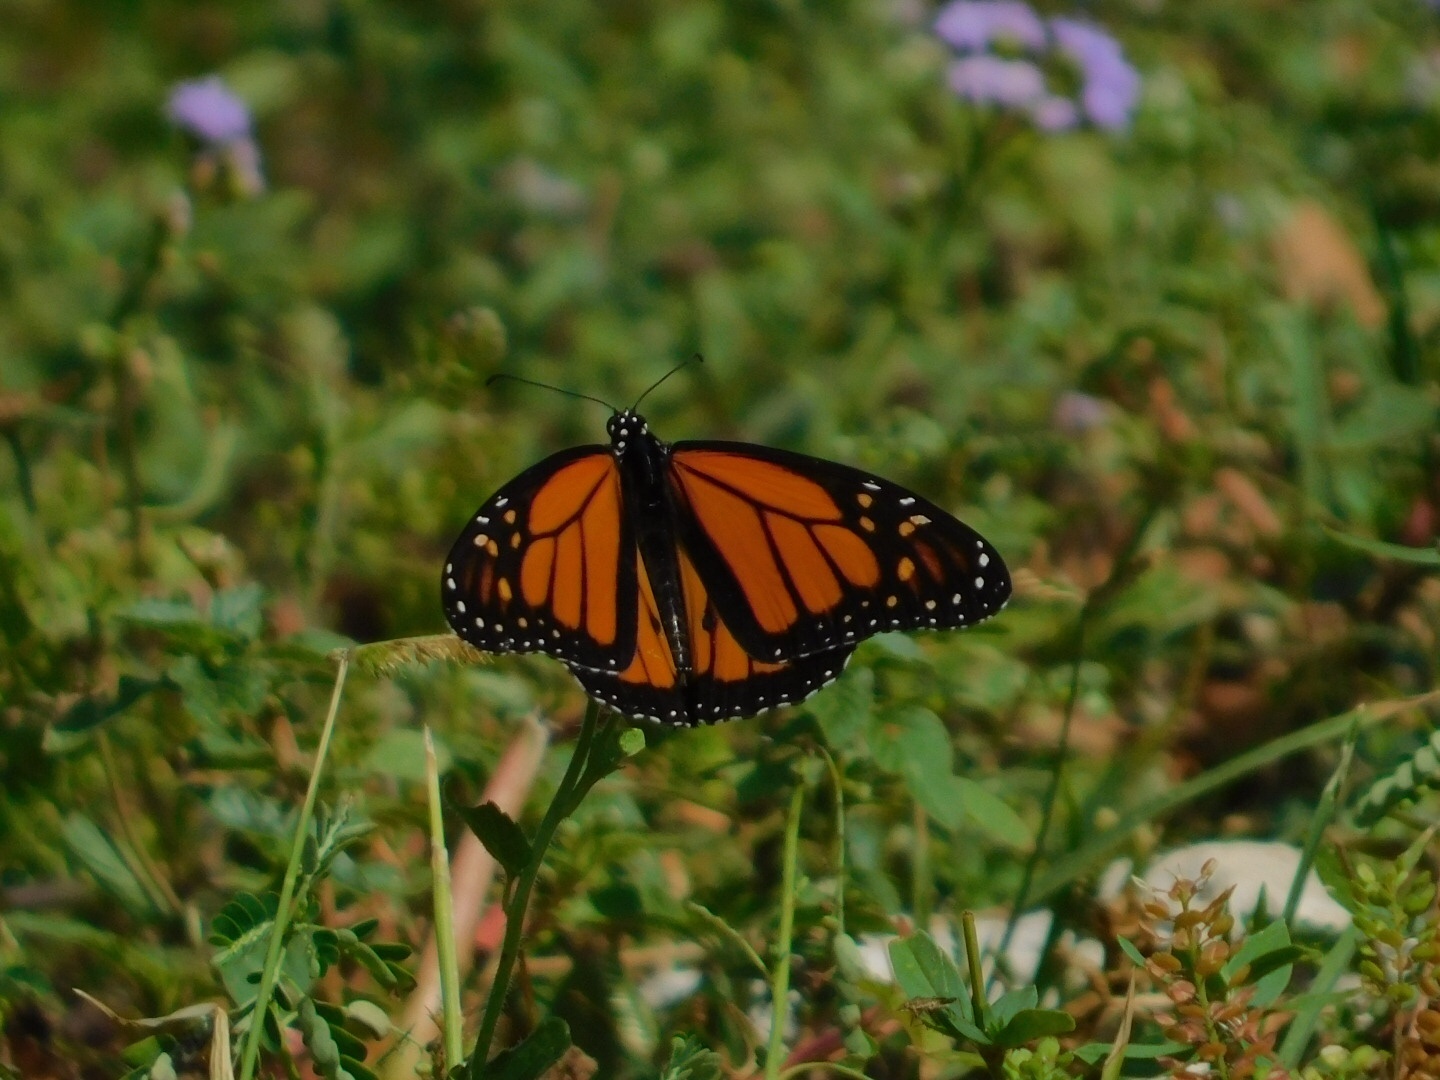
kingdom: Animalia
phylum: Arthropoda
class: Insecta
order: Lepidoptera
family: Nymphalidae
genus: Danaus
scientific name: Danaus plexippus
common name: Monarch
